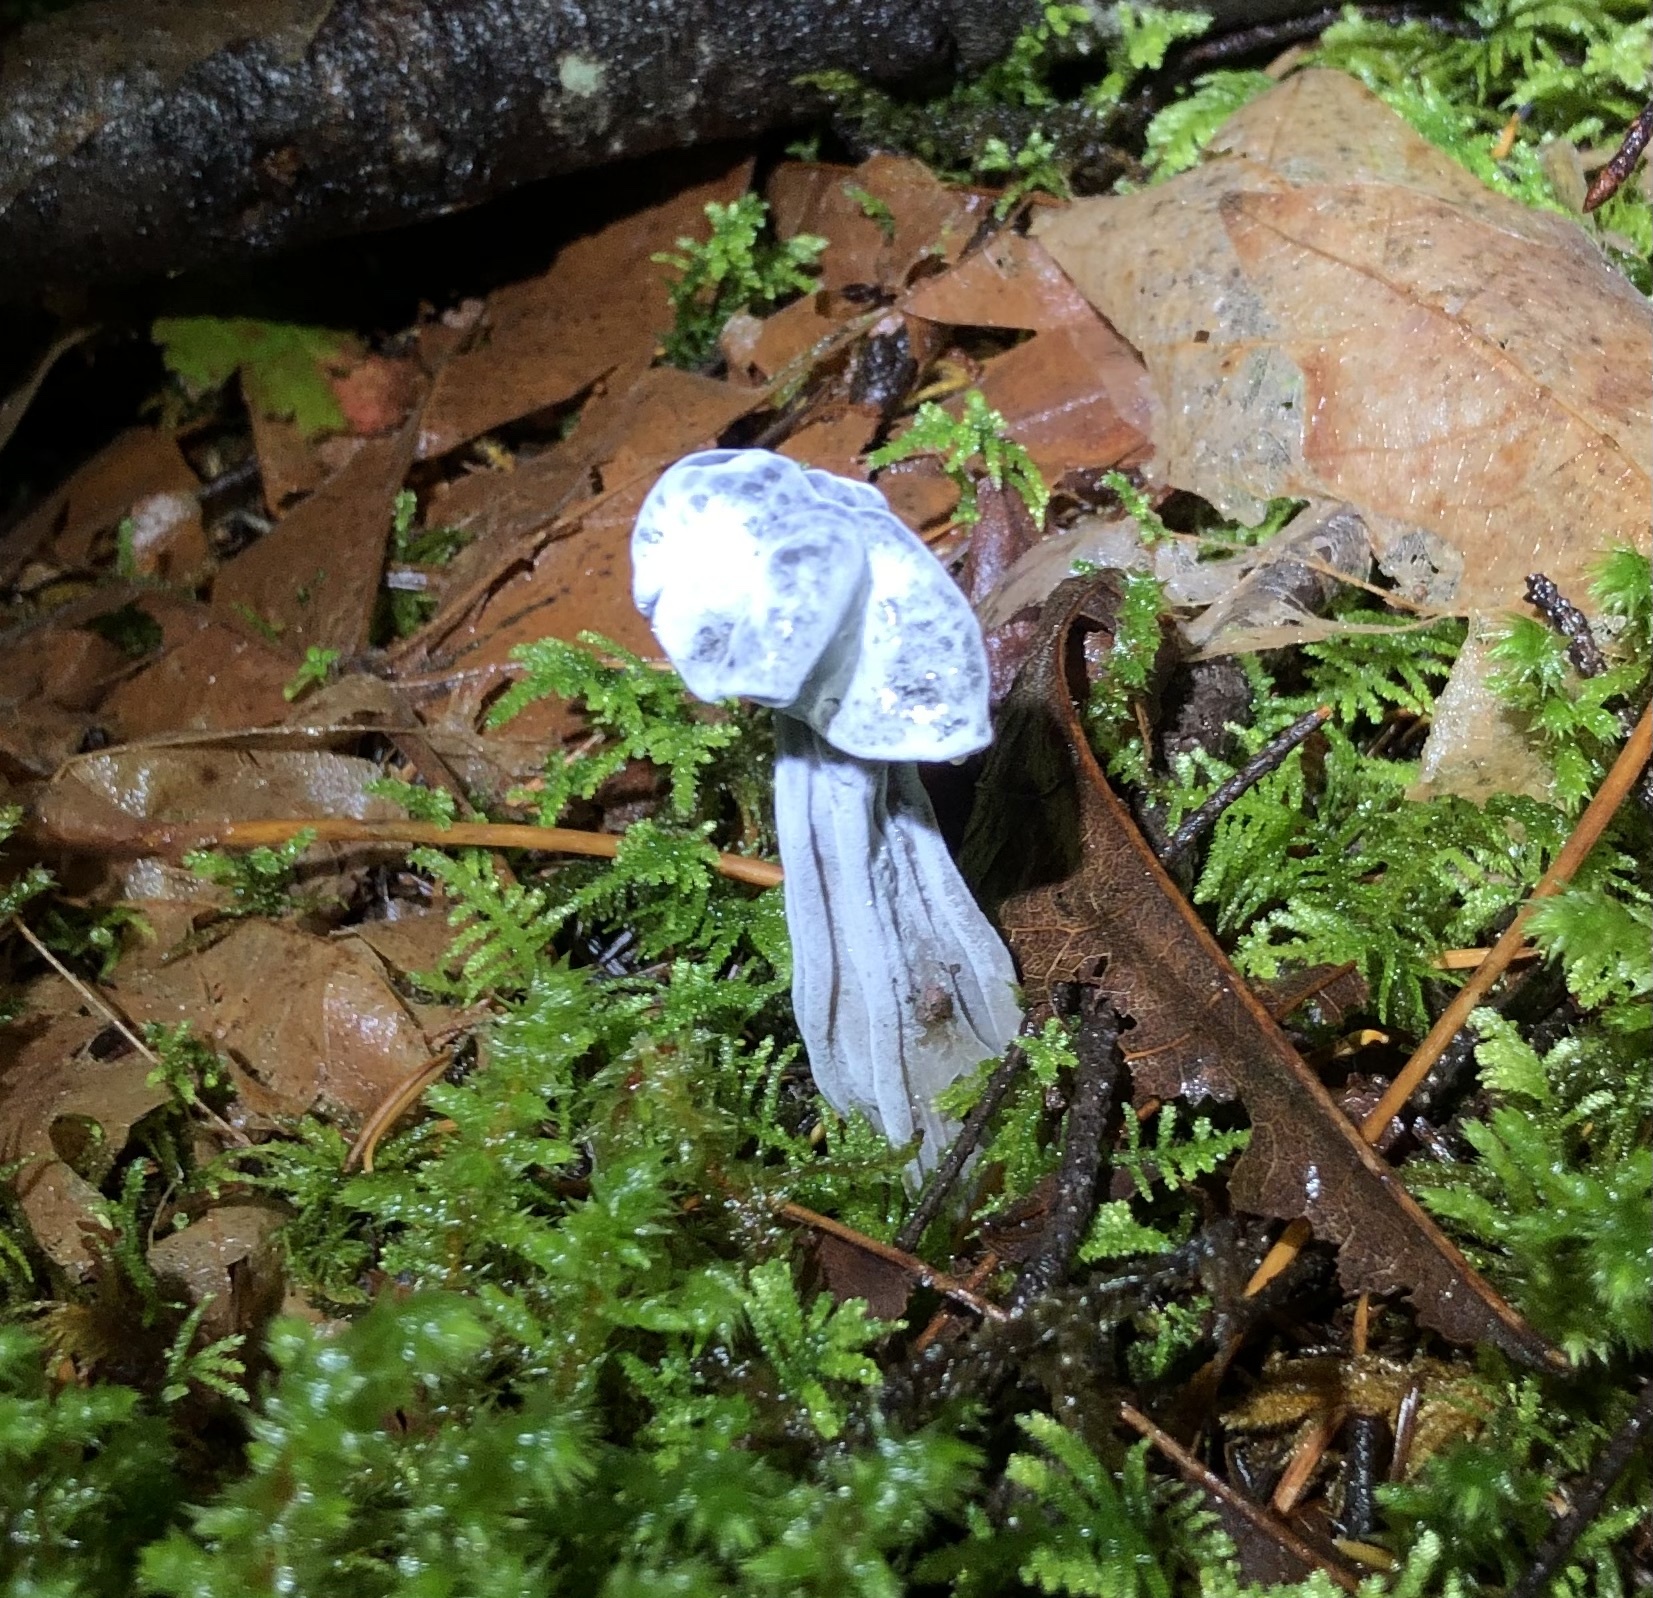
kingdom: Fungi
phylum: Ascomycota
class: Sordariomycetes
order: Hypocreales
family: Hypocreaceae
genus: Hypomyces
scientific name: Hypomyces cervinus
